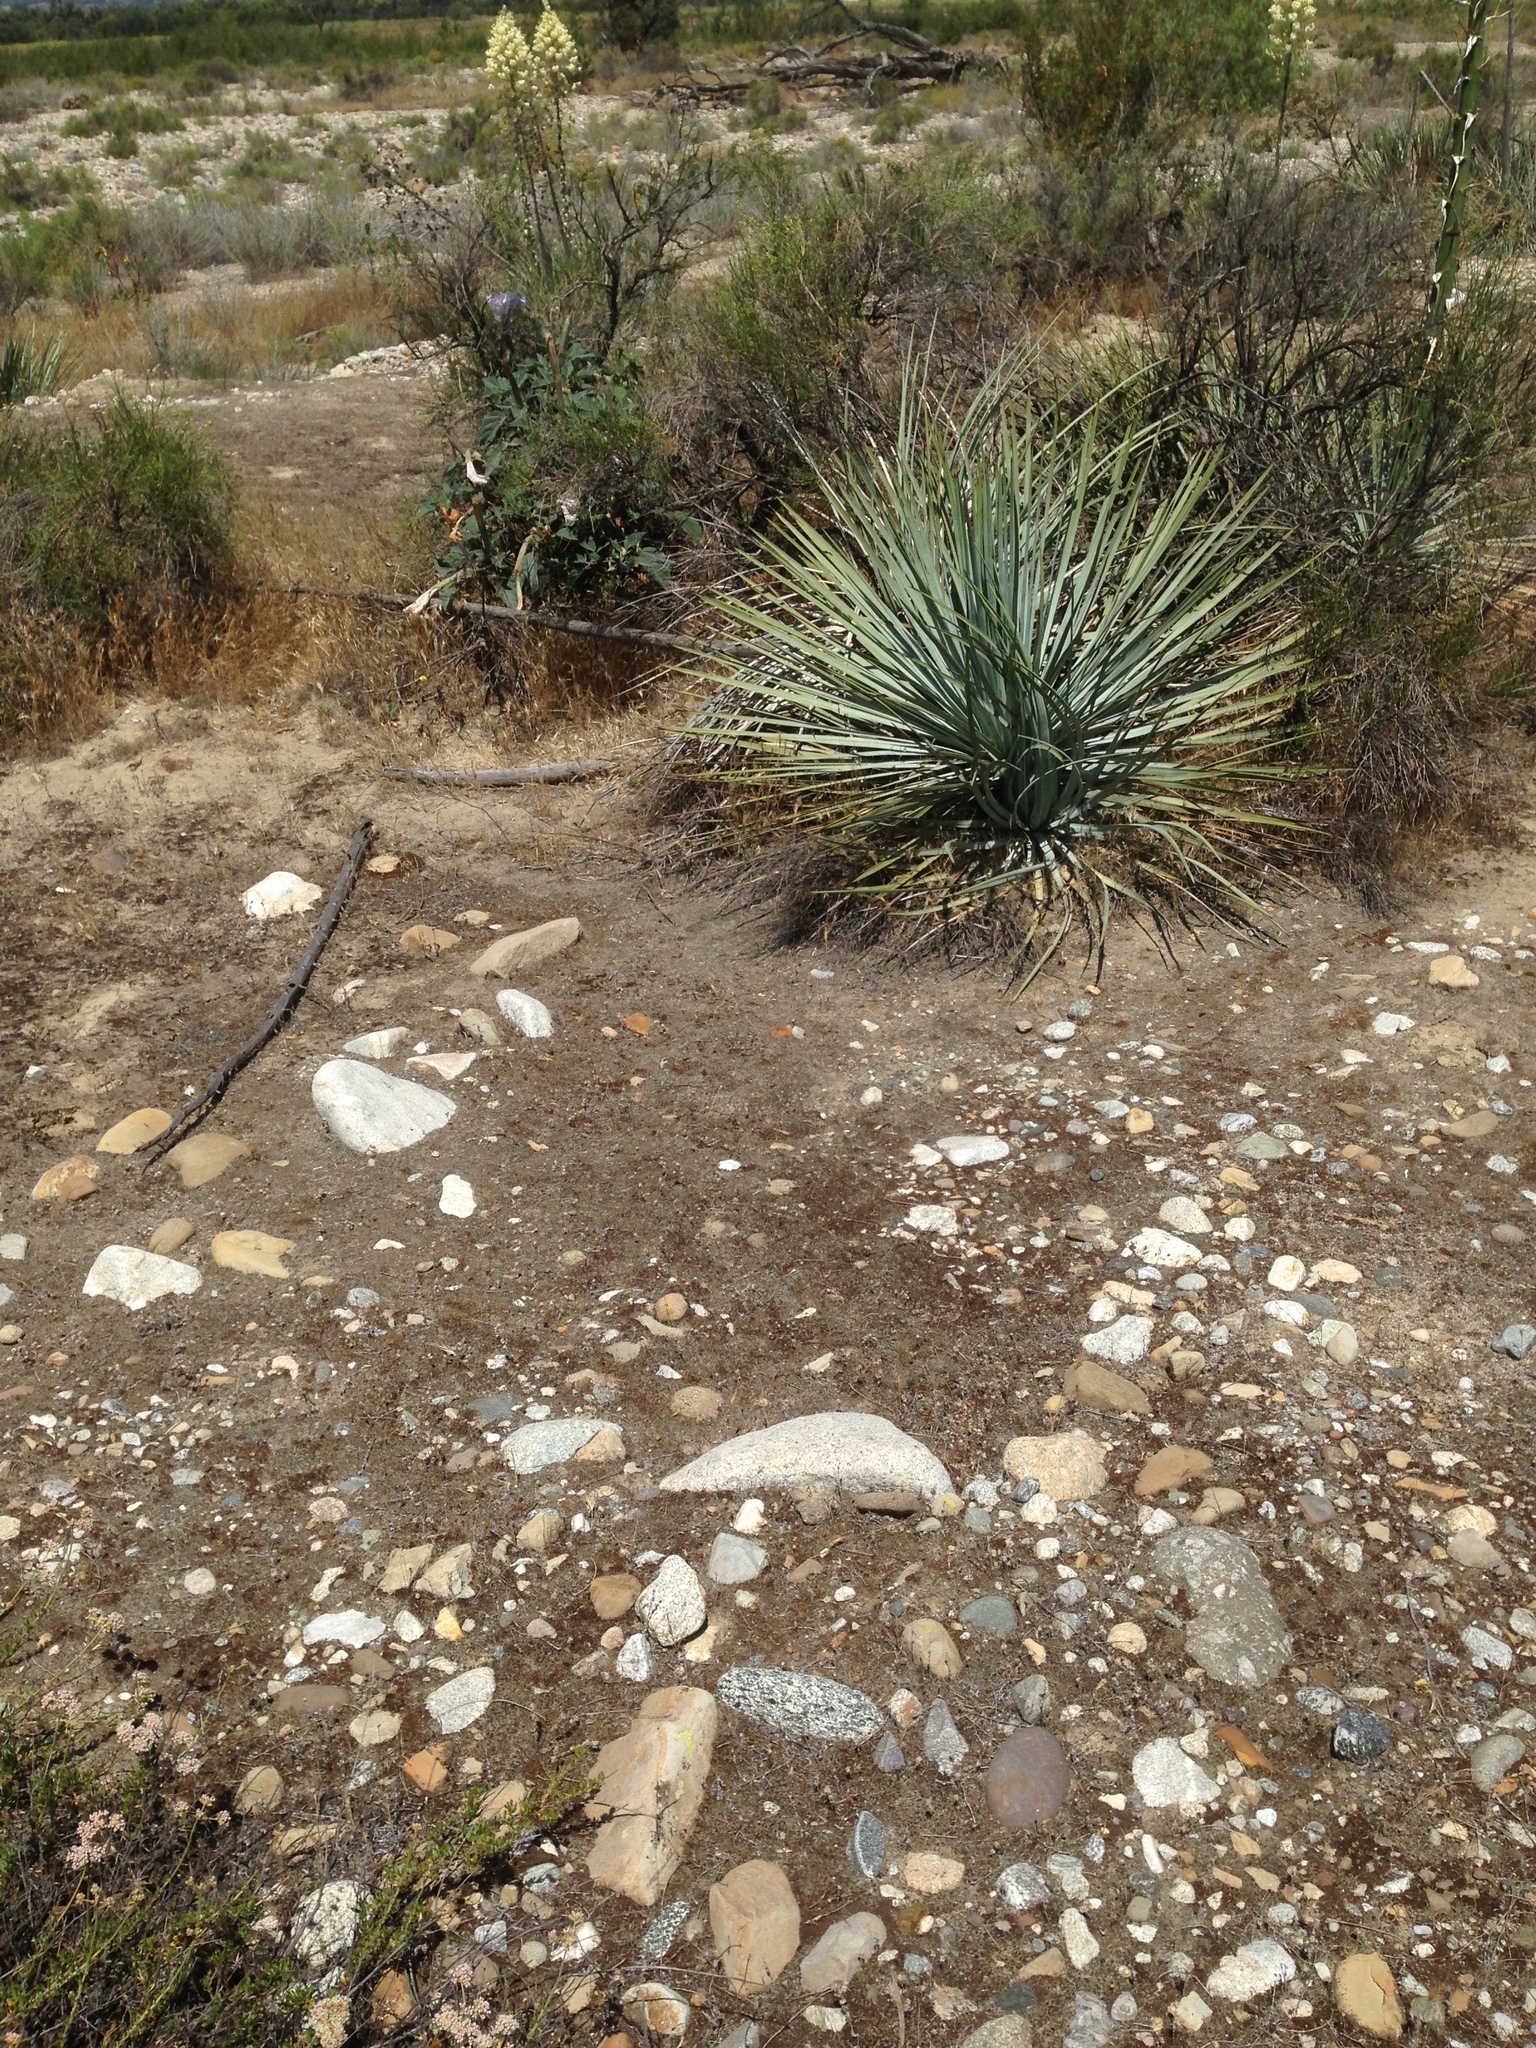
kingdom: Plantae
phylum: Tracheophyta
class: Liliopsida
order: Asparagales
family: Asparagaceae
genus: Hesperoyucca
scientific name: Hesperoyucca whipplei
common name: Our lord's-candle
